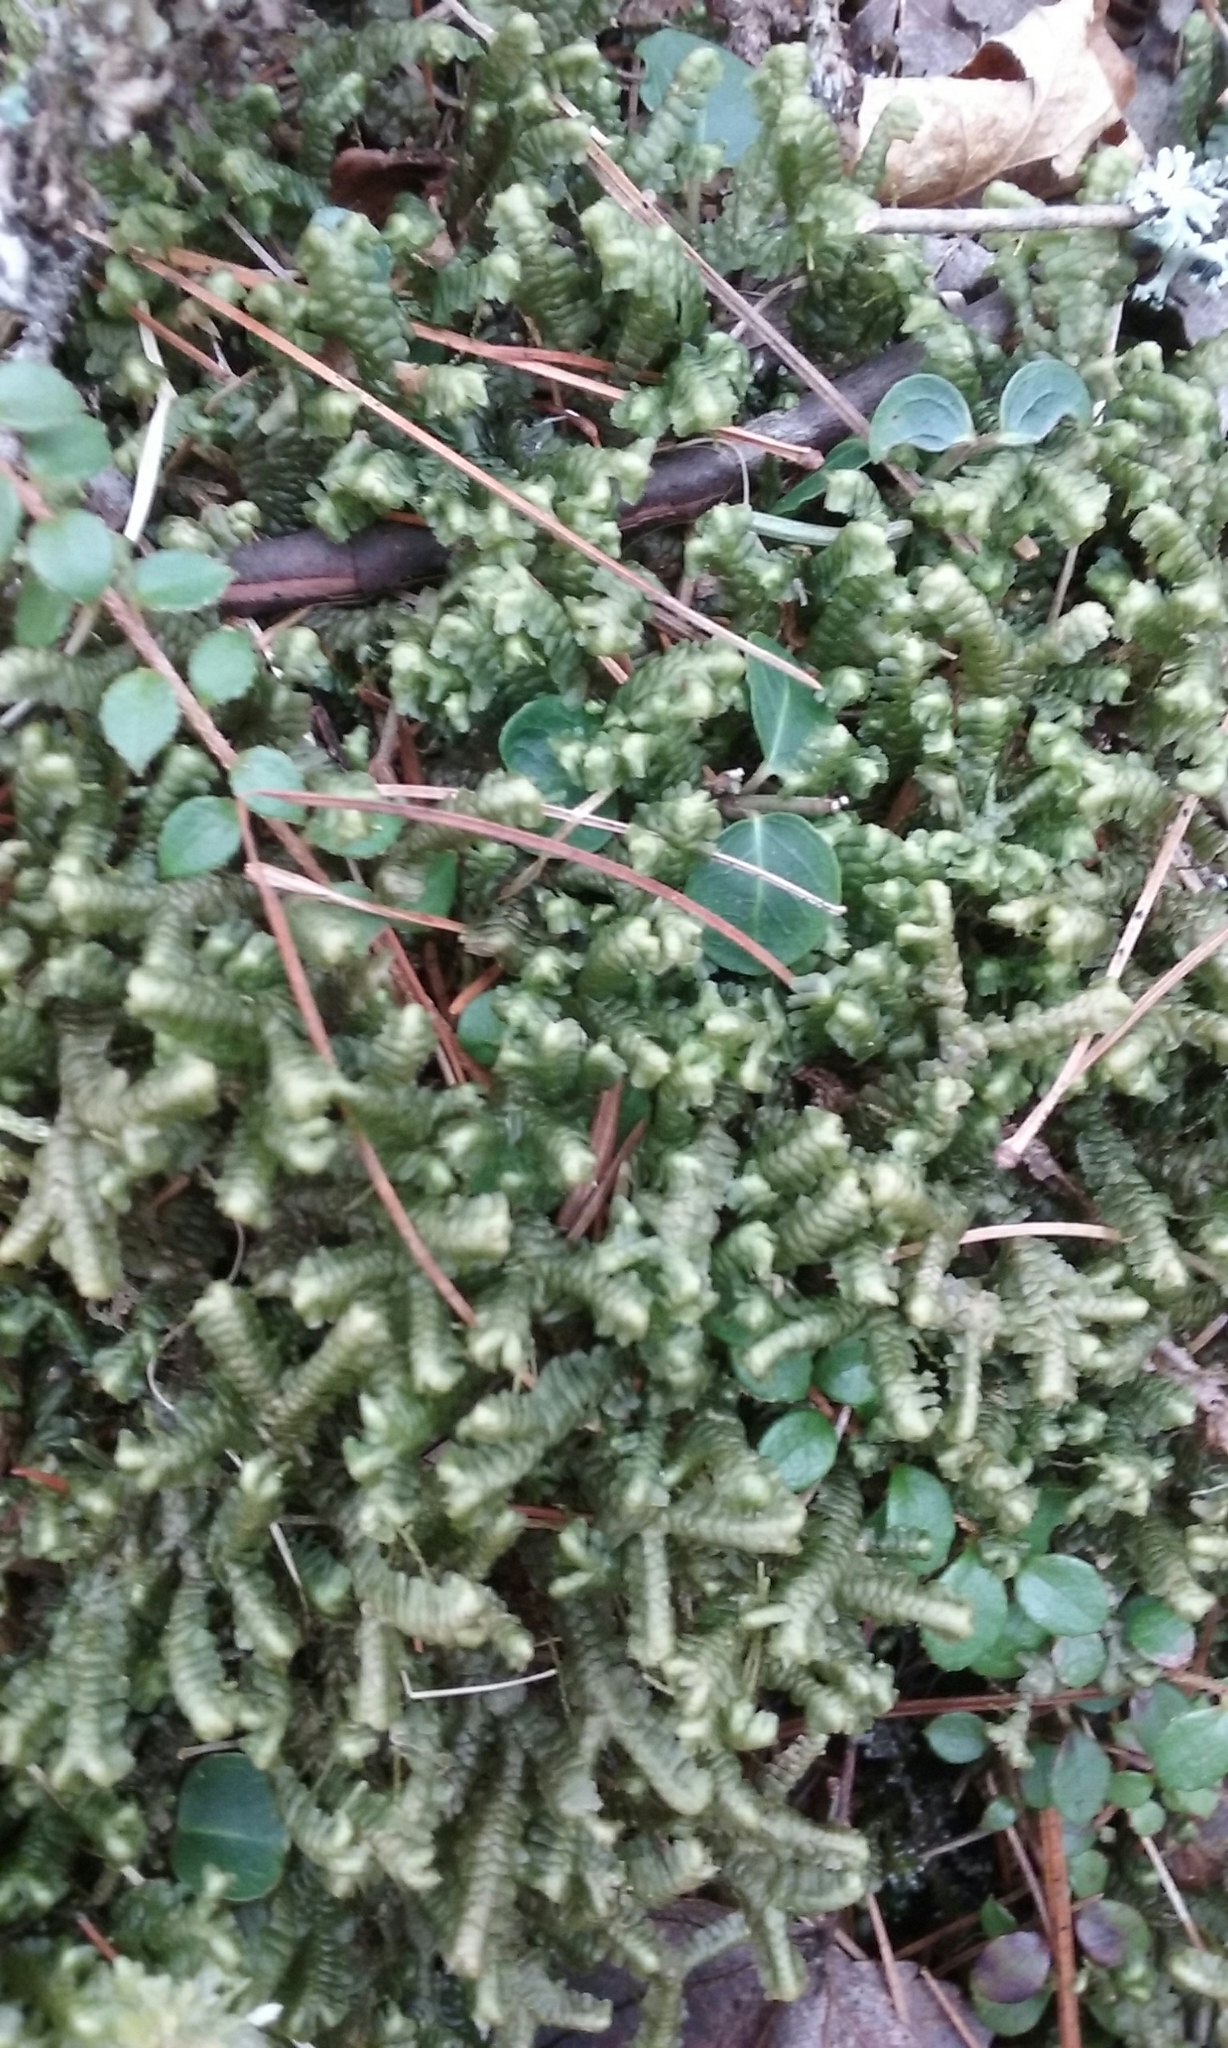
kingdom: Plantae
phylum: Marchantiophyta
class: Jungermanniopsida
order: Jungermanniales
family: Lepidoziaceae
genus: Bazzania
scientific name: Bazzania trilobata
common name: Three-lobed whipwort
